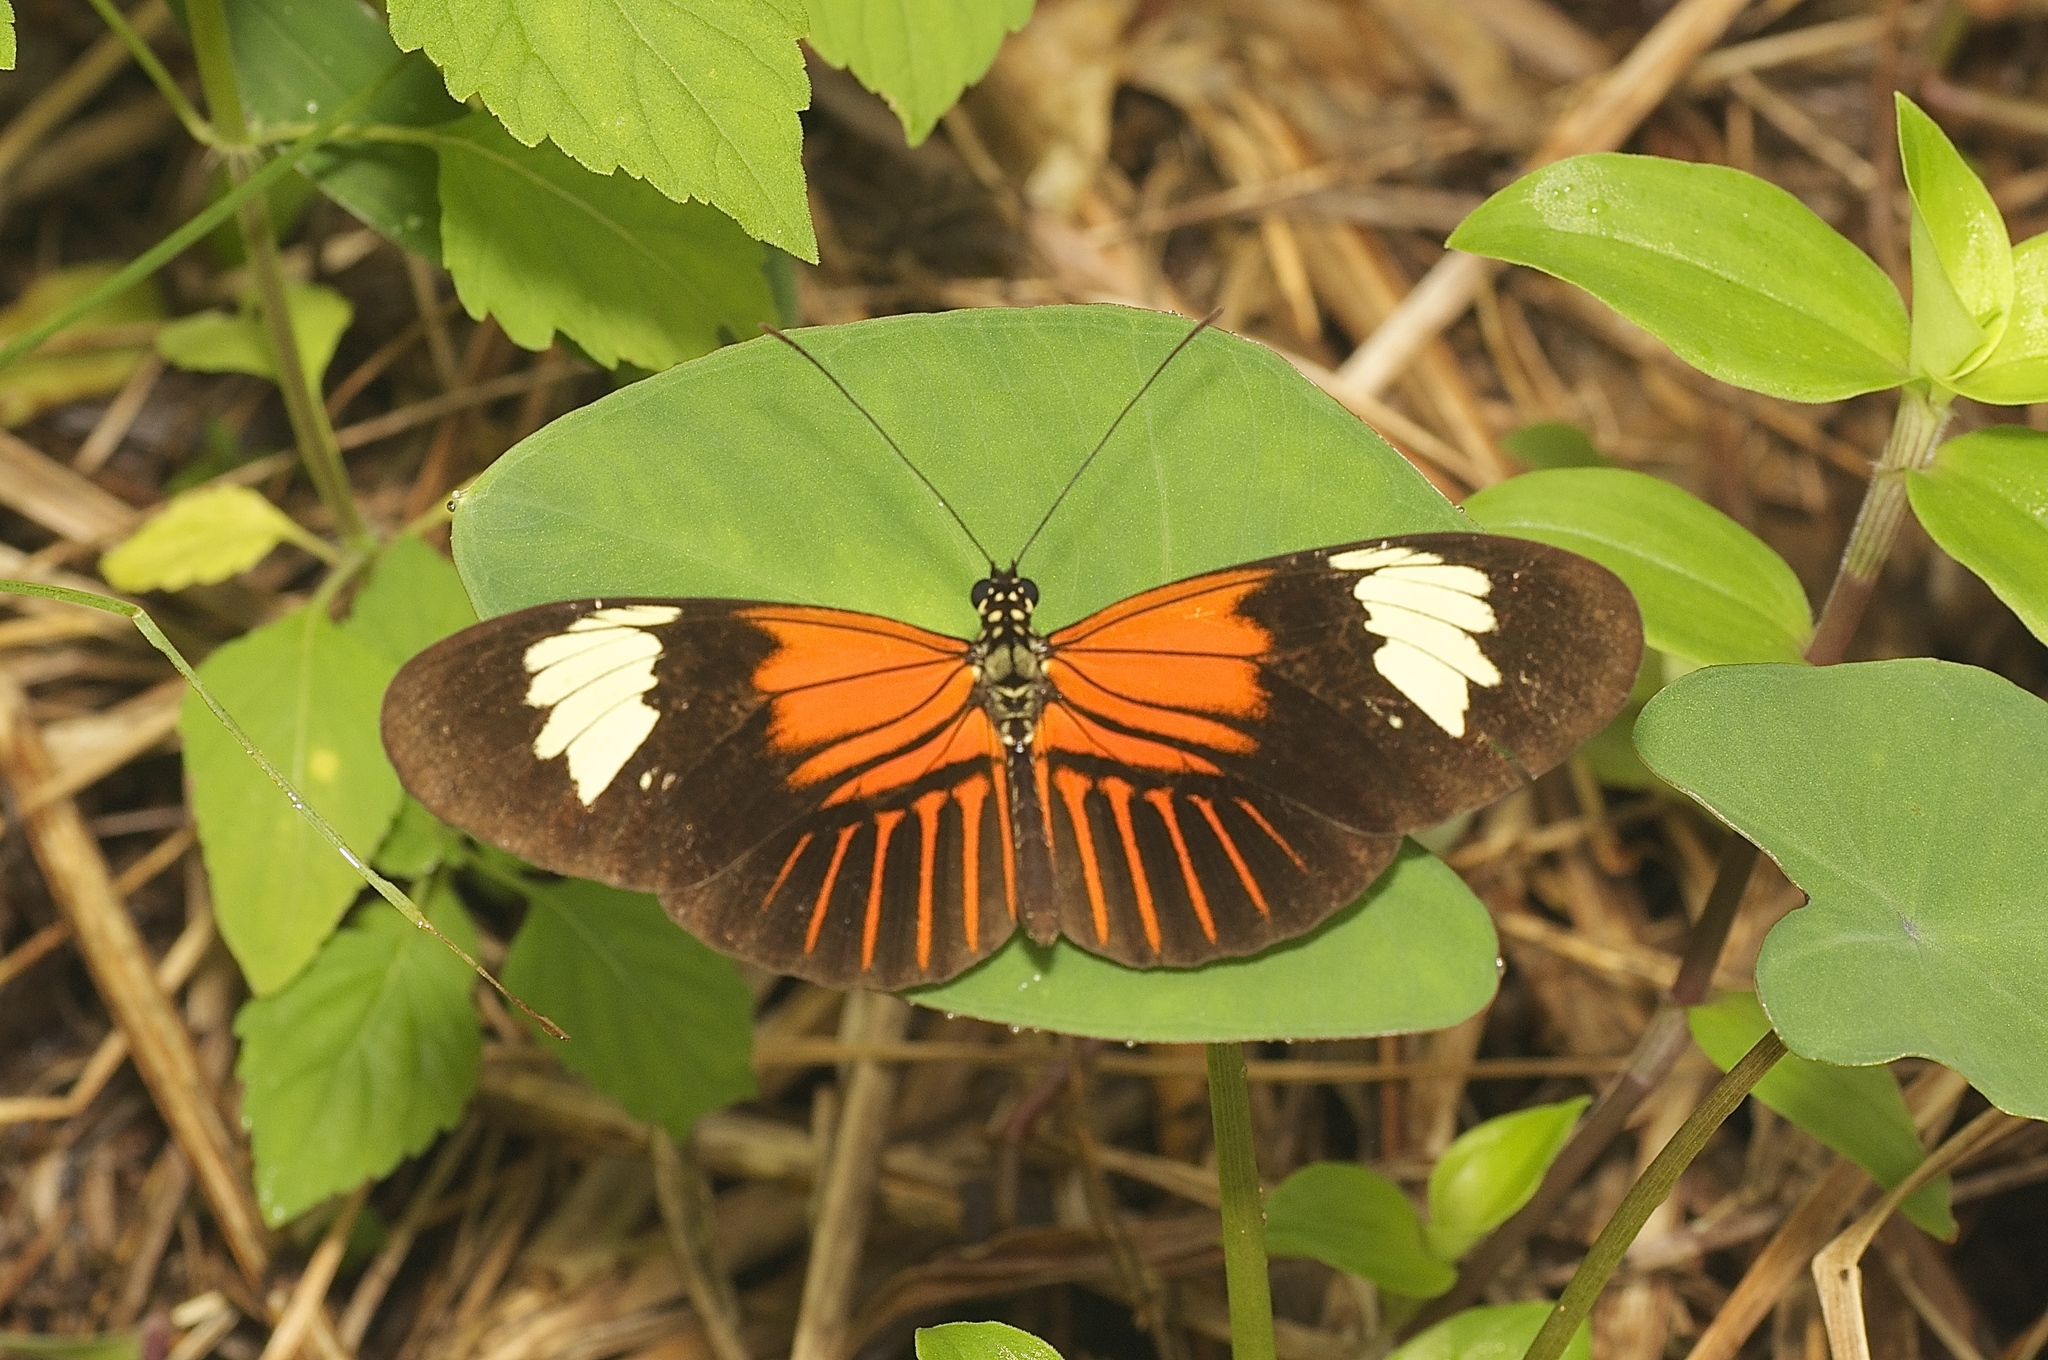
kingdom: Animalia
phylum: Arthropoda
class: Insecta
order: Lepidoptera
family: Nymphalidae
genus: Heliconius
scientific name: Heliconius melpomene
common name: Postman
